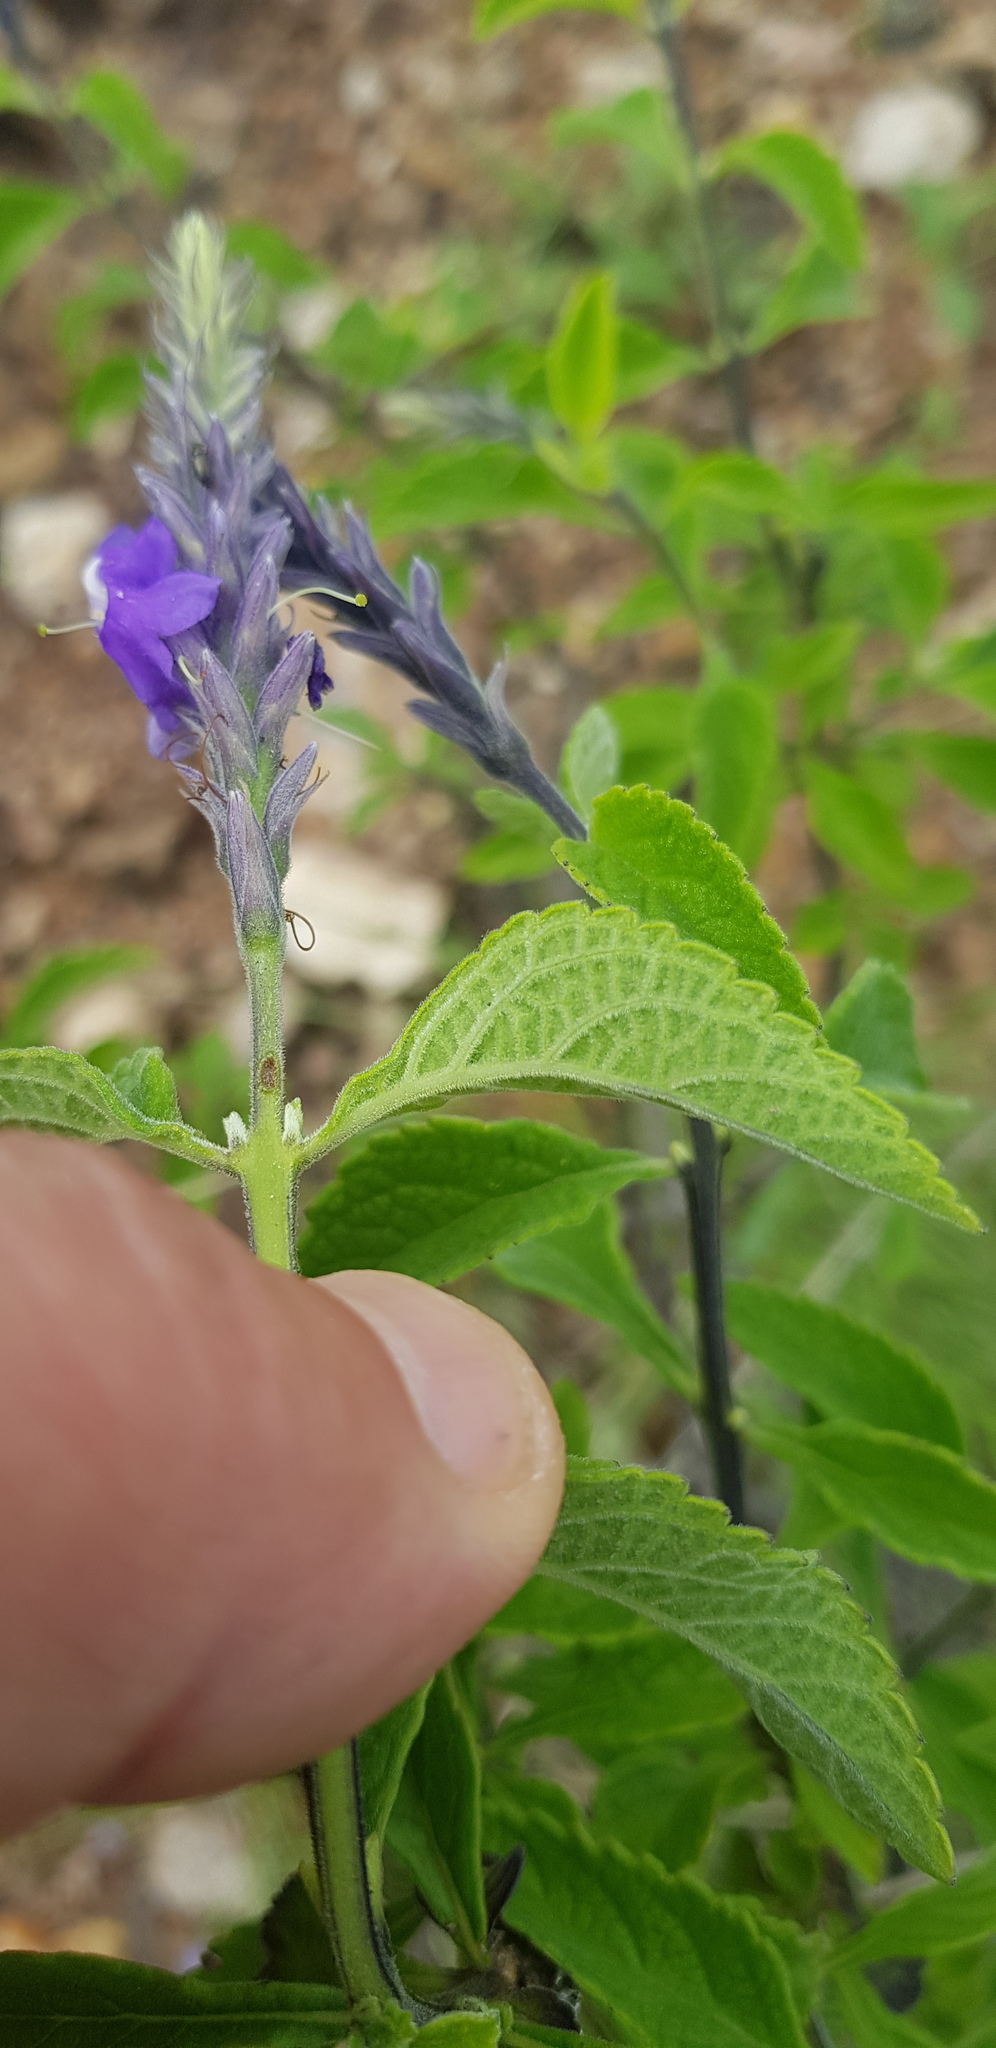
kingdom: Plantae
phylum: Tracheophyta
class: Magnoliopsida
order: Lamiales
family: Verbenaceae
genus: Stachytarpheta
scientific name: Stachytarpheta acuminata
